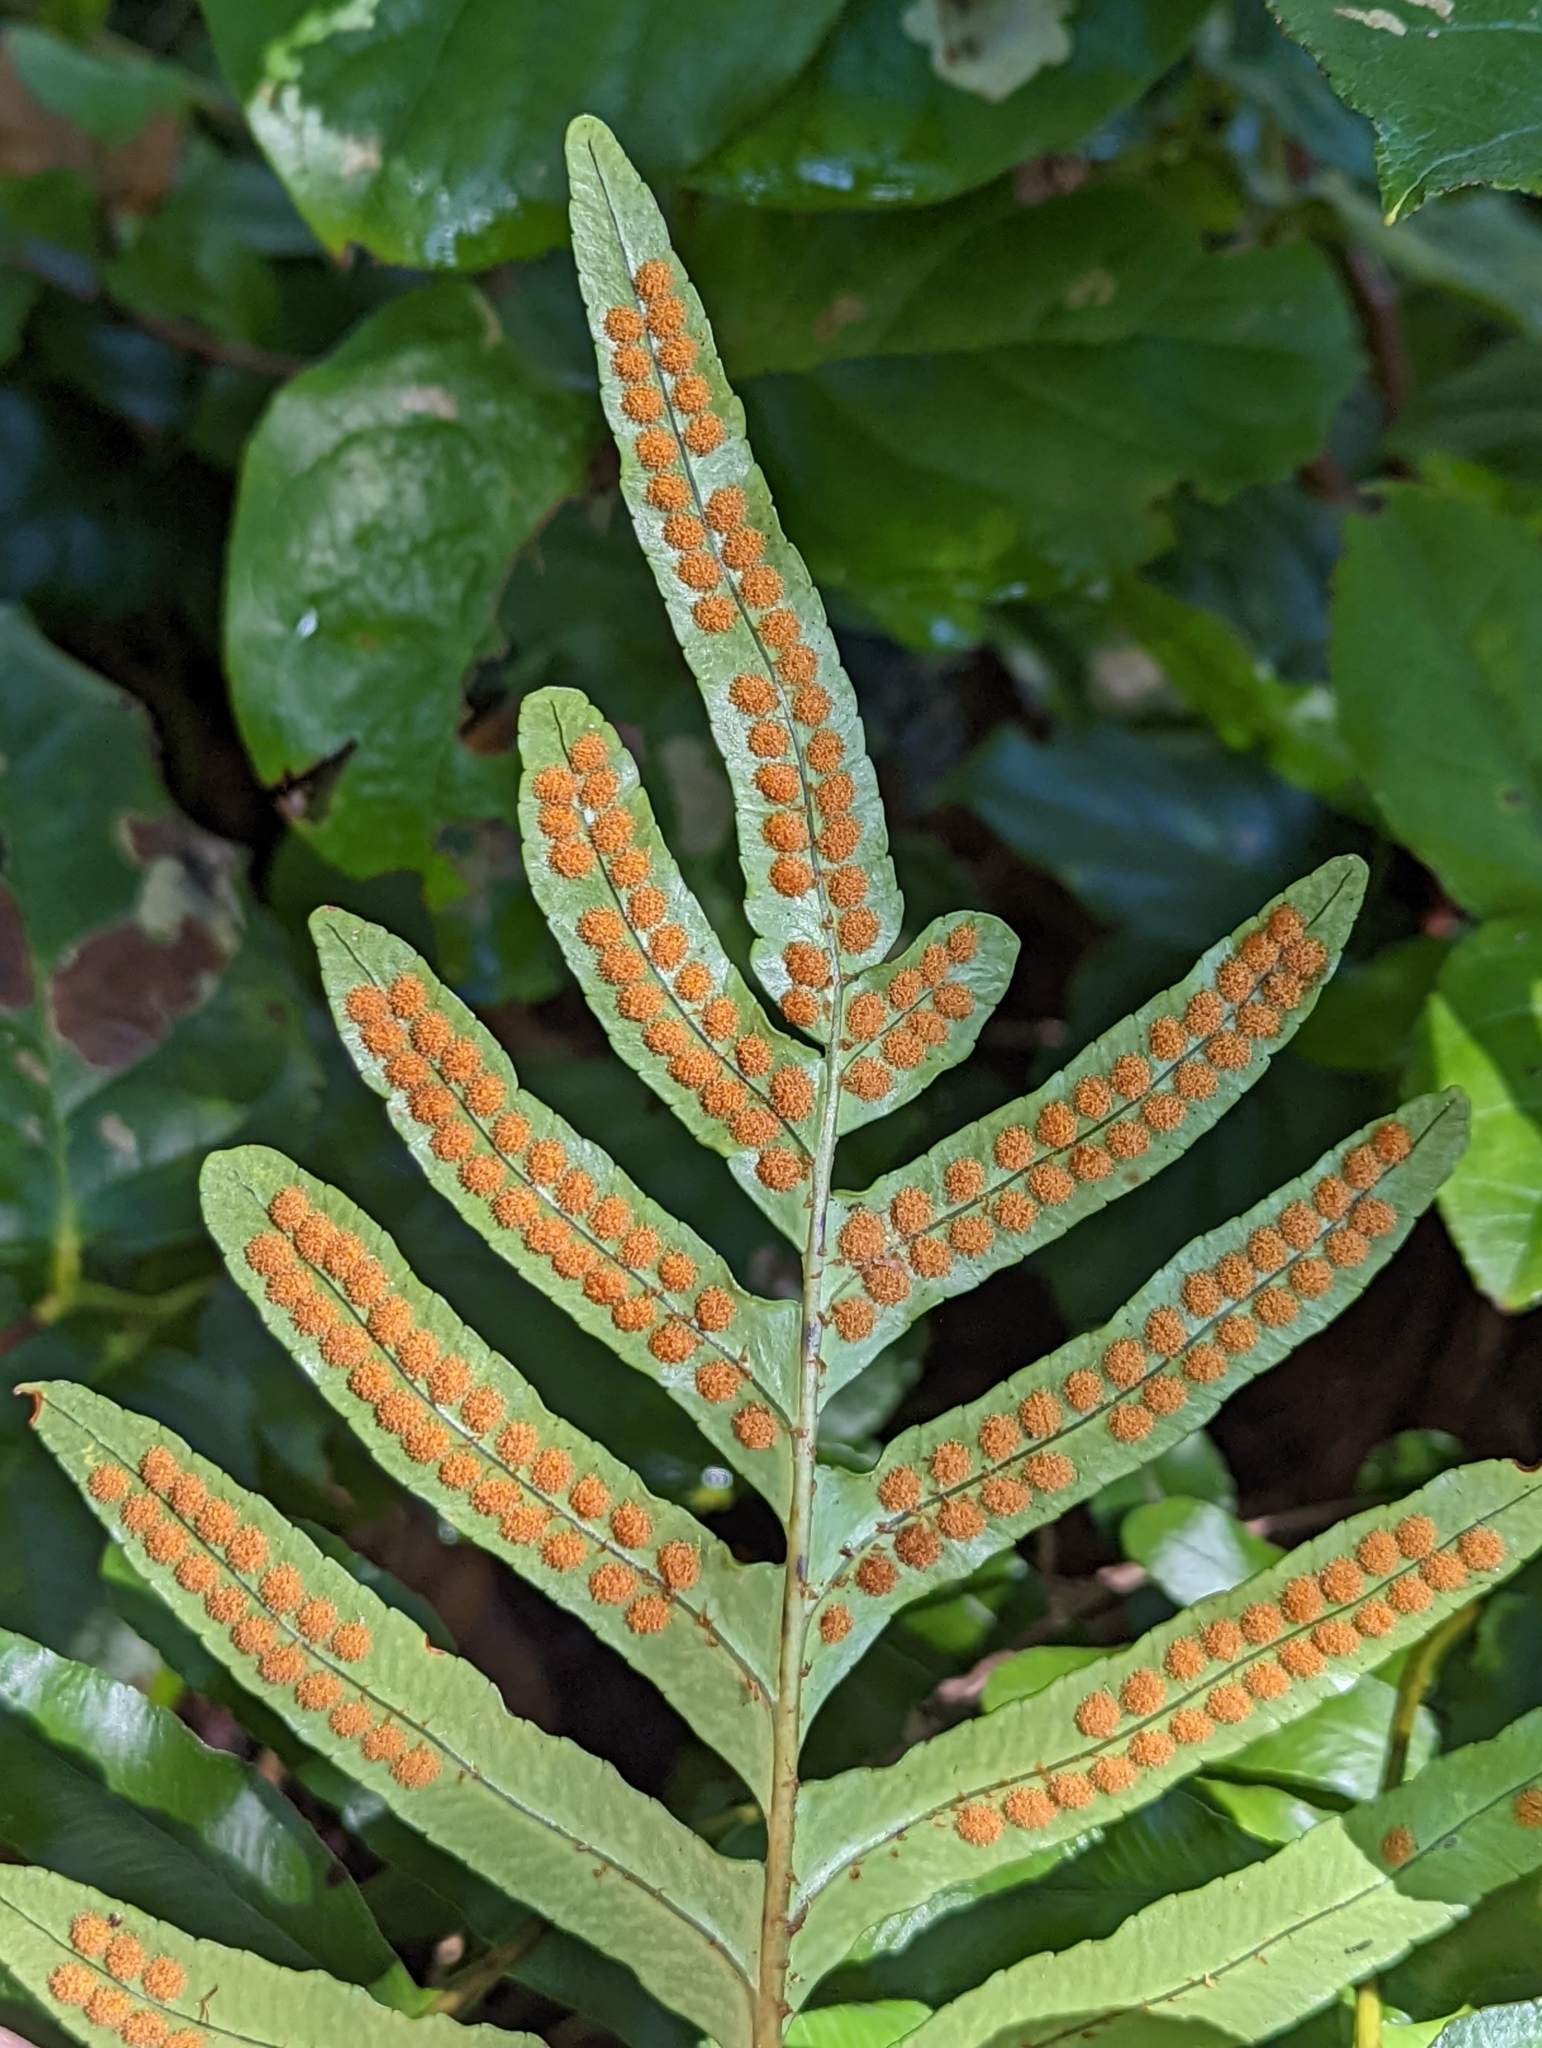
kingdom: Plantae
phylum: Tracheophyta
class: Polypodiopsida
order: Polypodiales
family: Polypodiaceae
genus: Polypodium
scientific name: Polypodium scouleri
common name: Scouler's polypody
